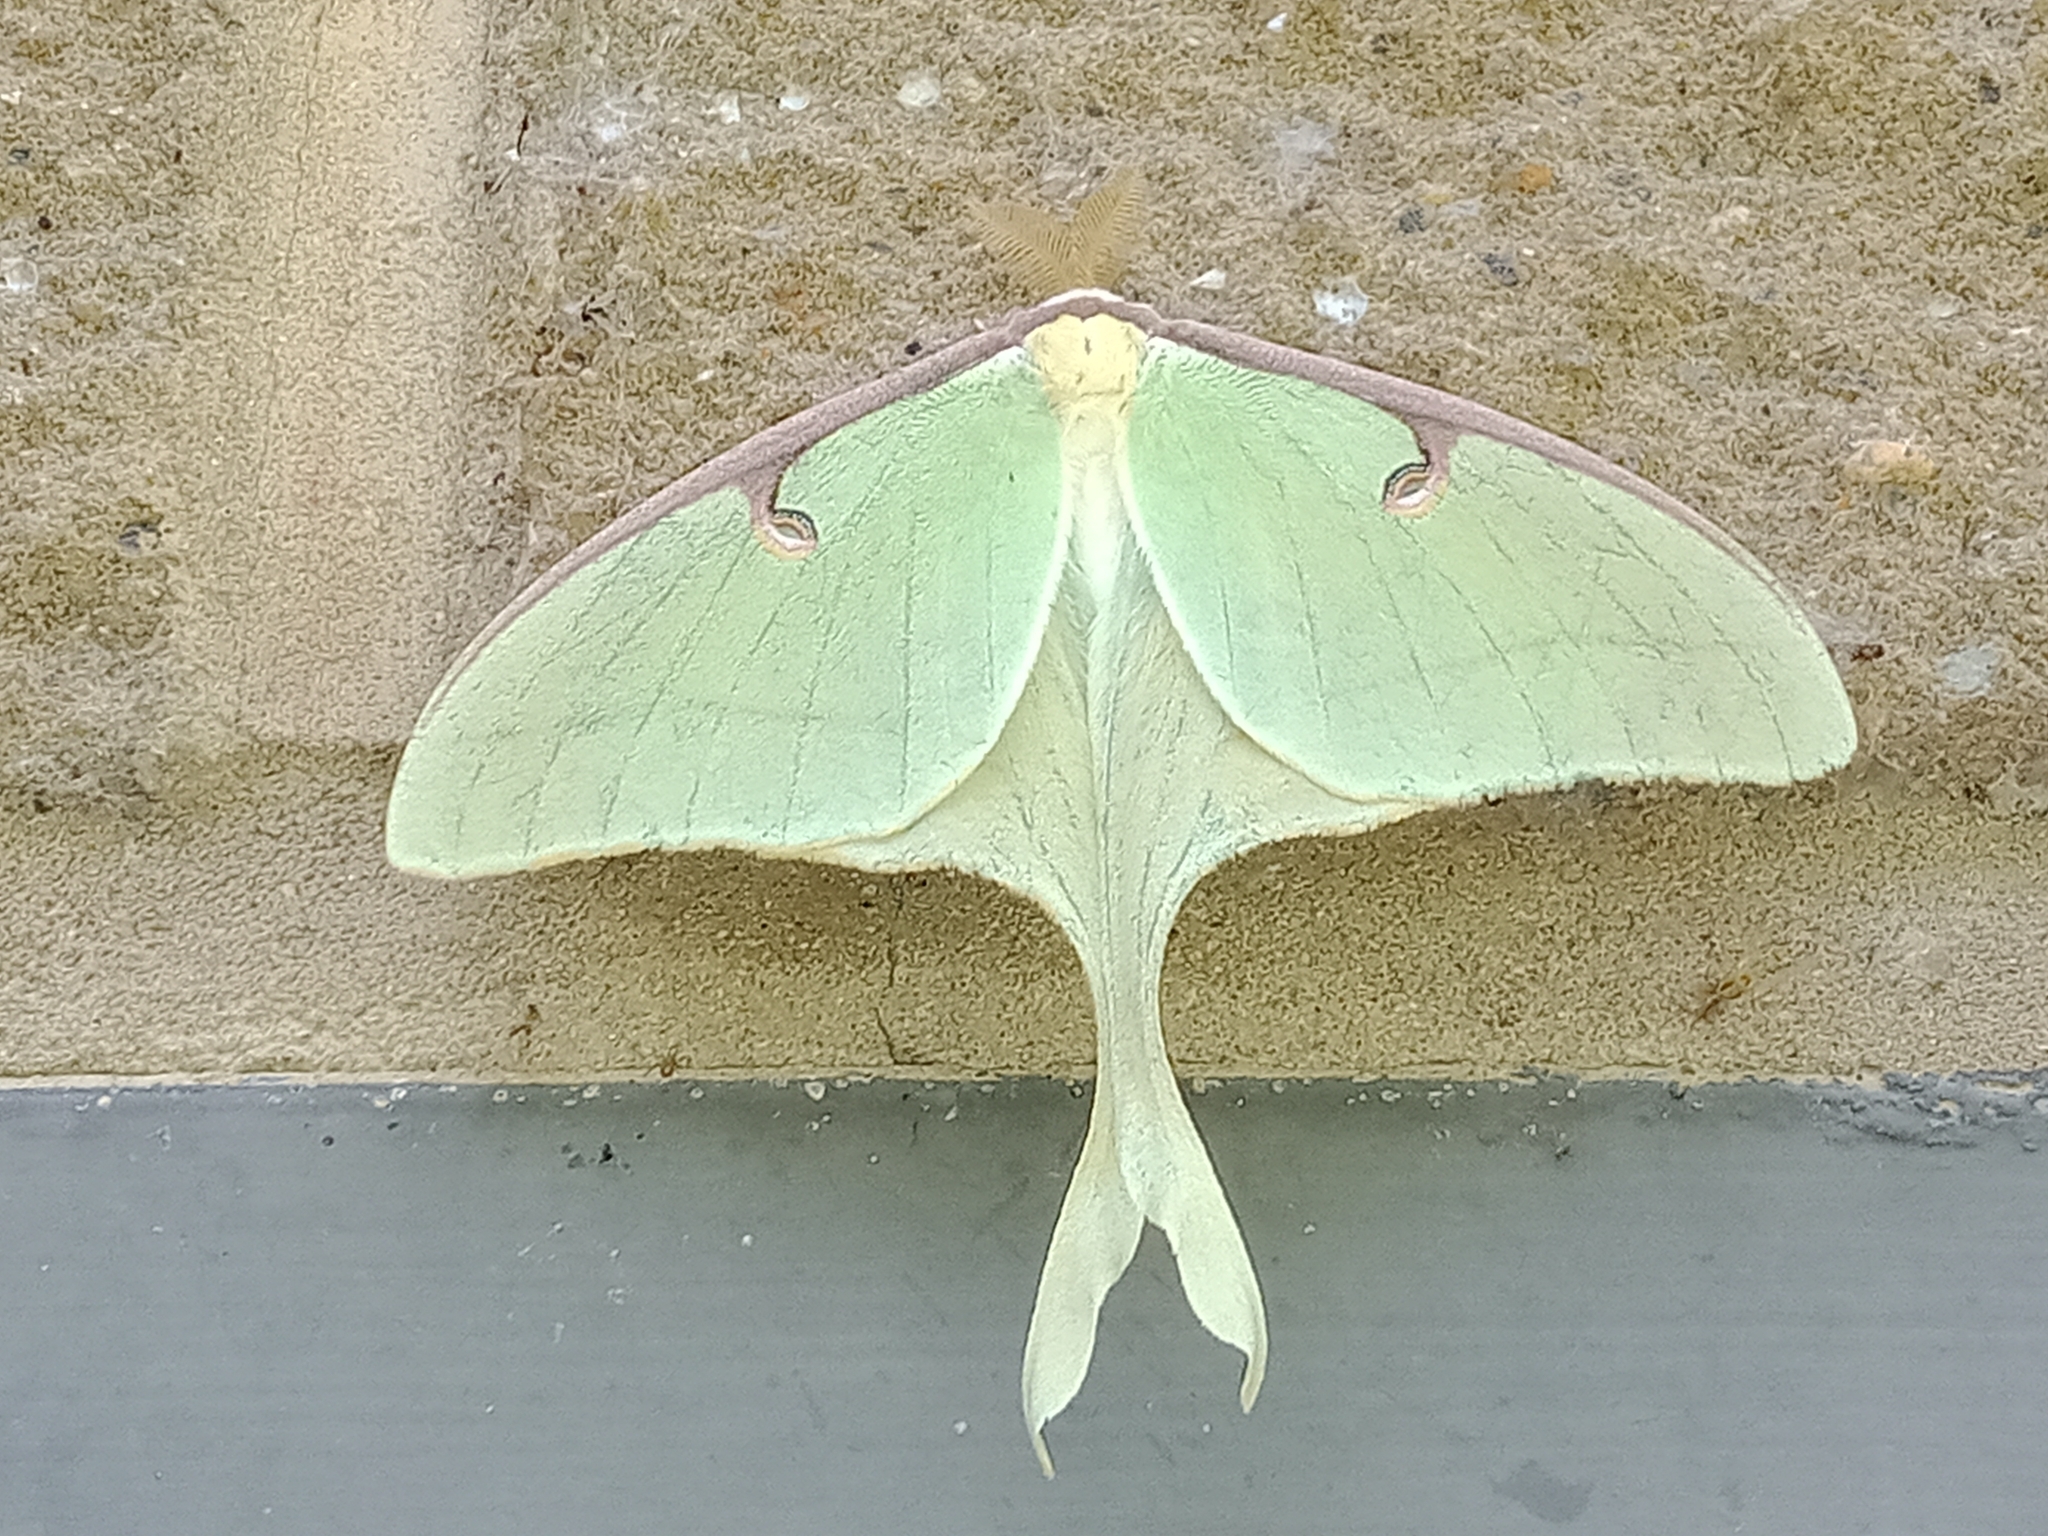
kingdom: Animalia
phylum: Arthropoda
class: Insecta
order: Lepidoptera
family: Saturniidae
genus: Actias
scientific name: Actias luna
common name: Luna moth
